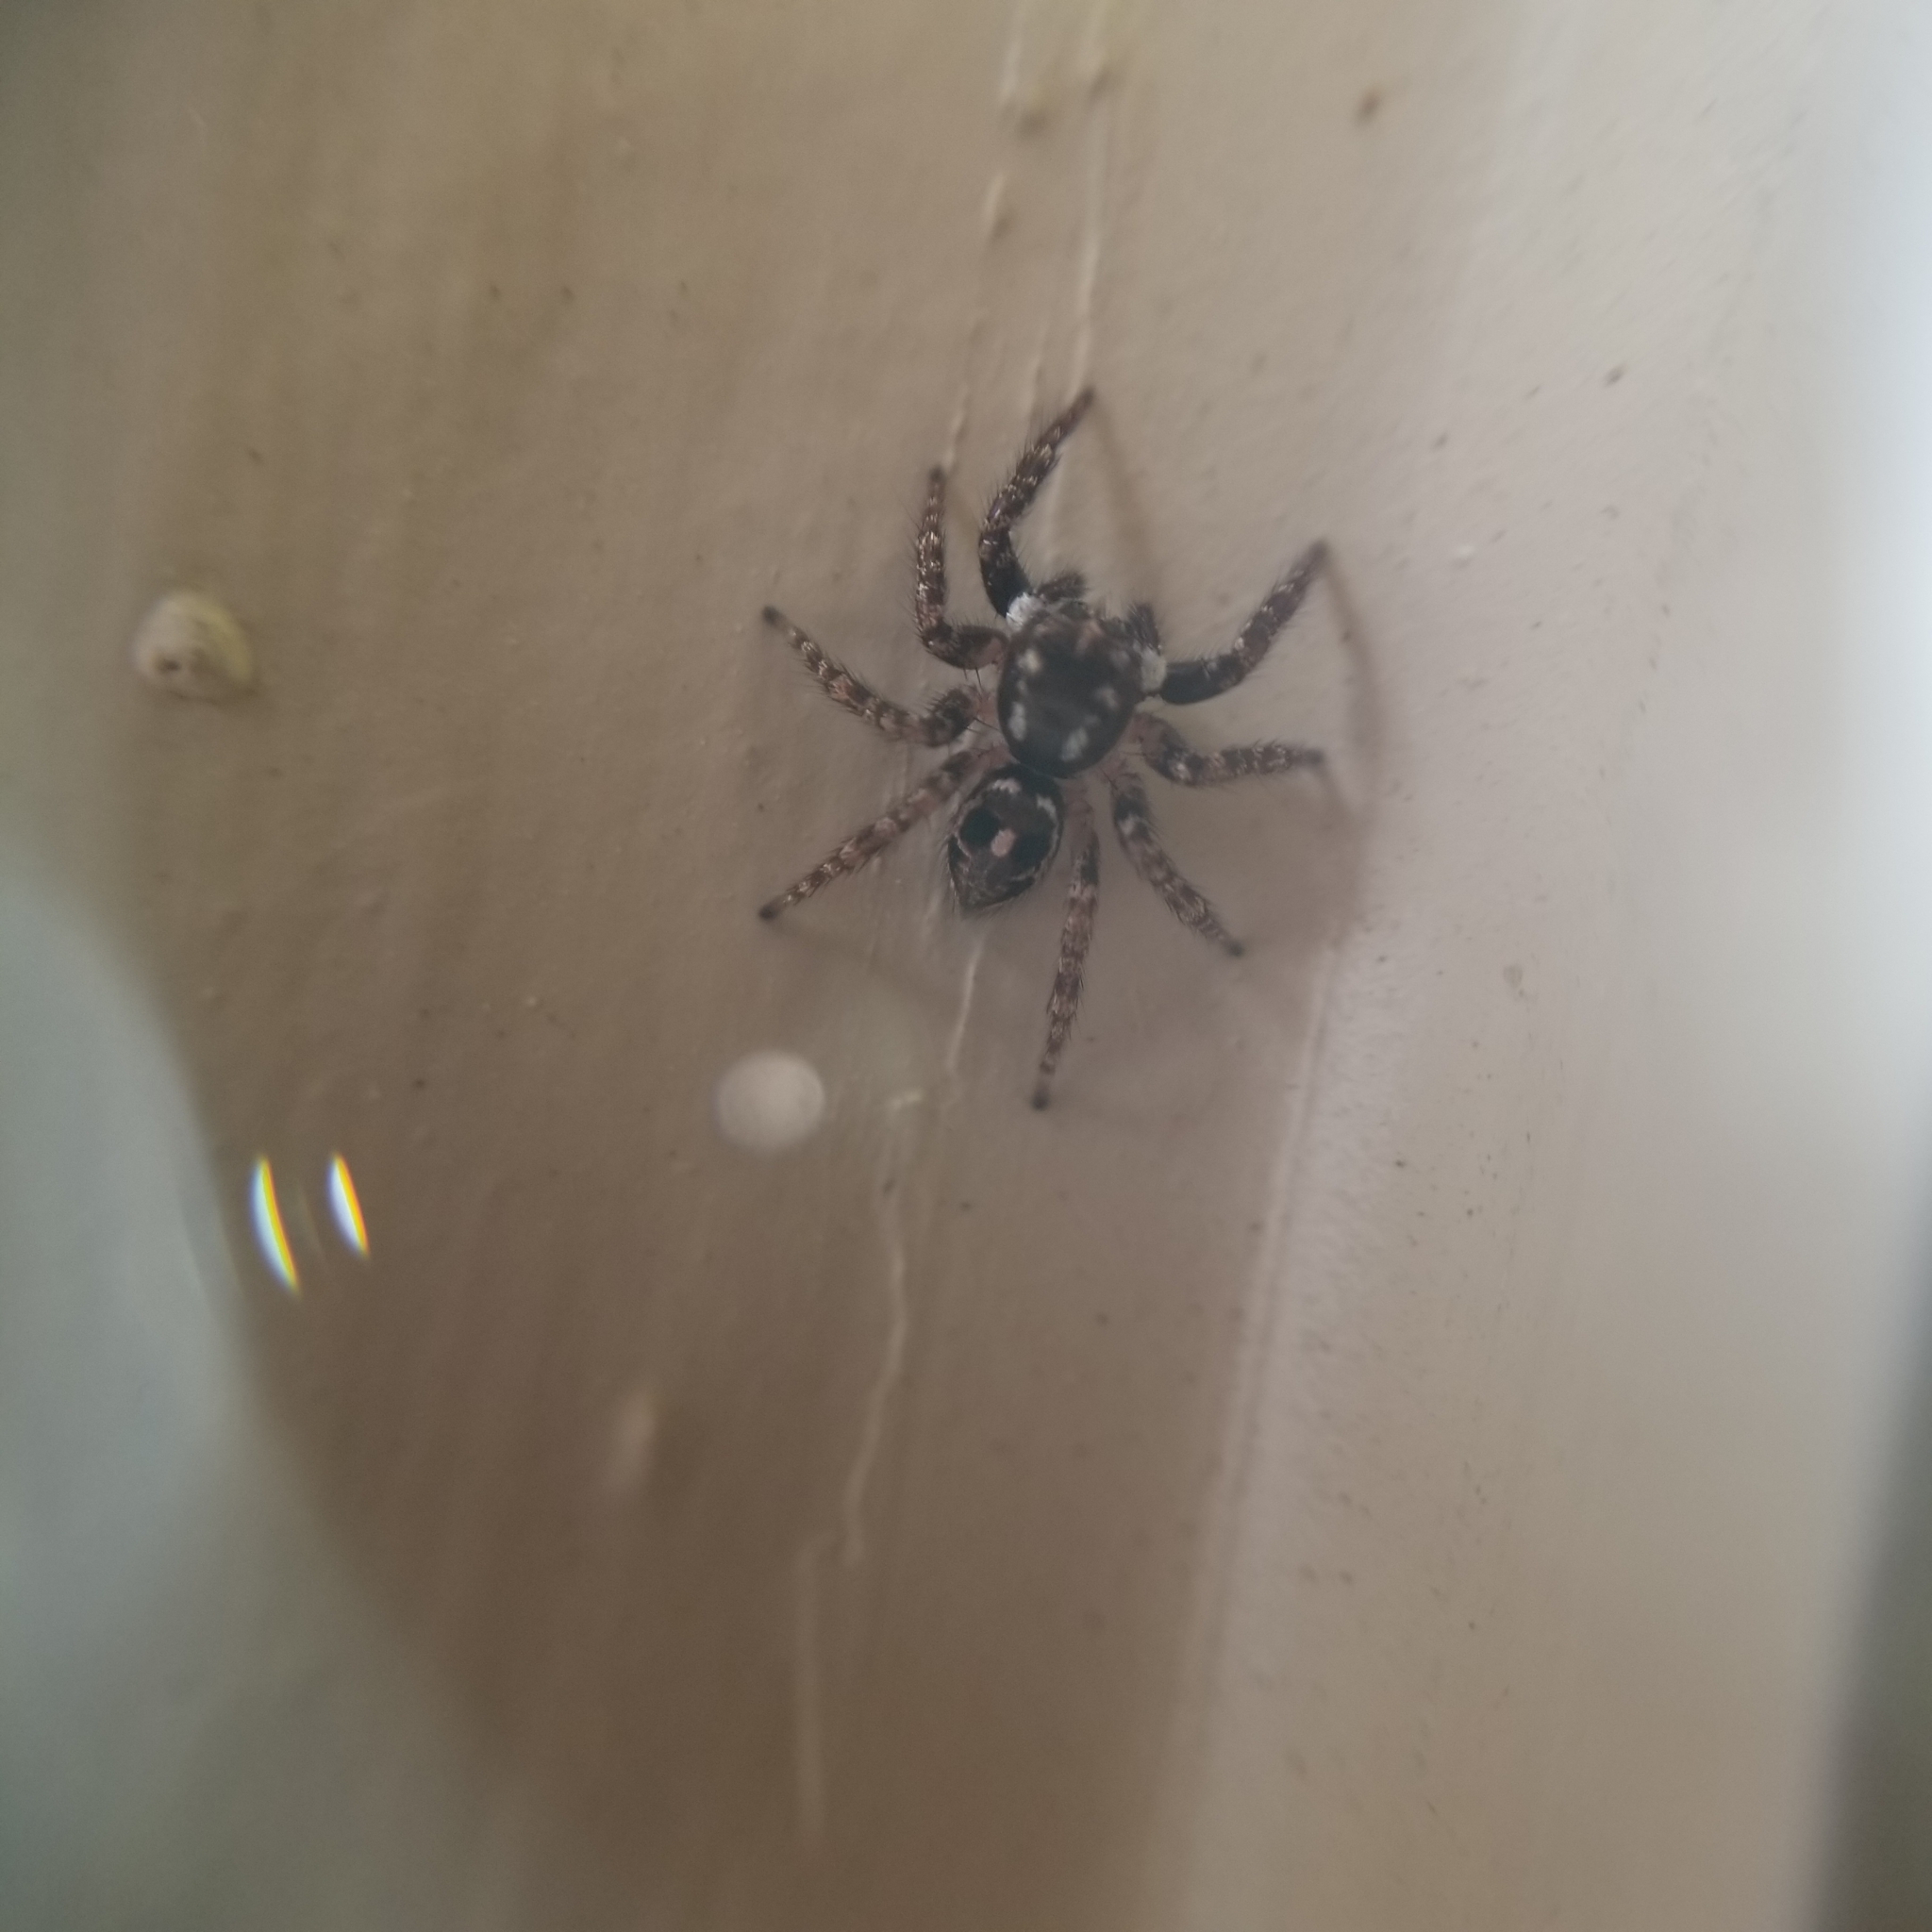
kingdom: Animalia
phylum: Arthropoda
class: Arachnida
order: Araneae
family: Salticidae
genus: Anasaitis
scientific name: Anasaitis canosa
